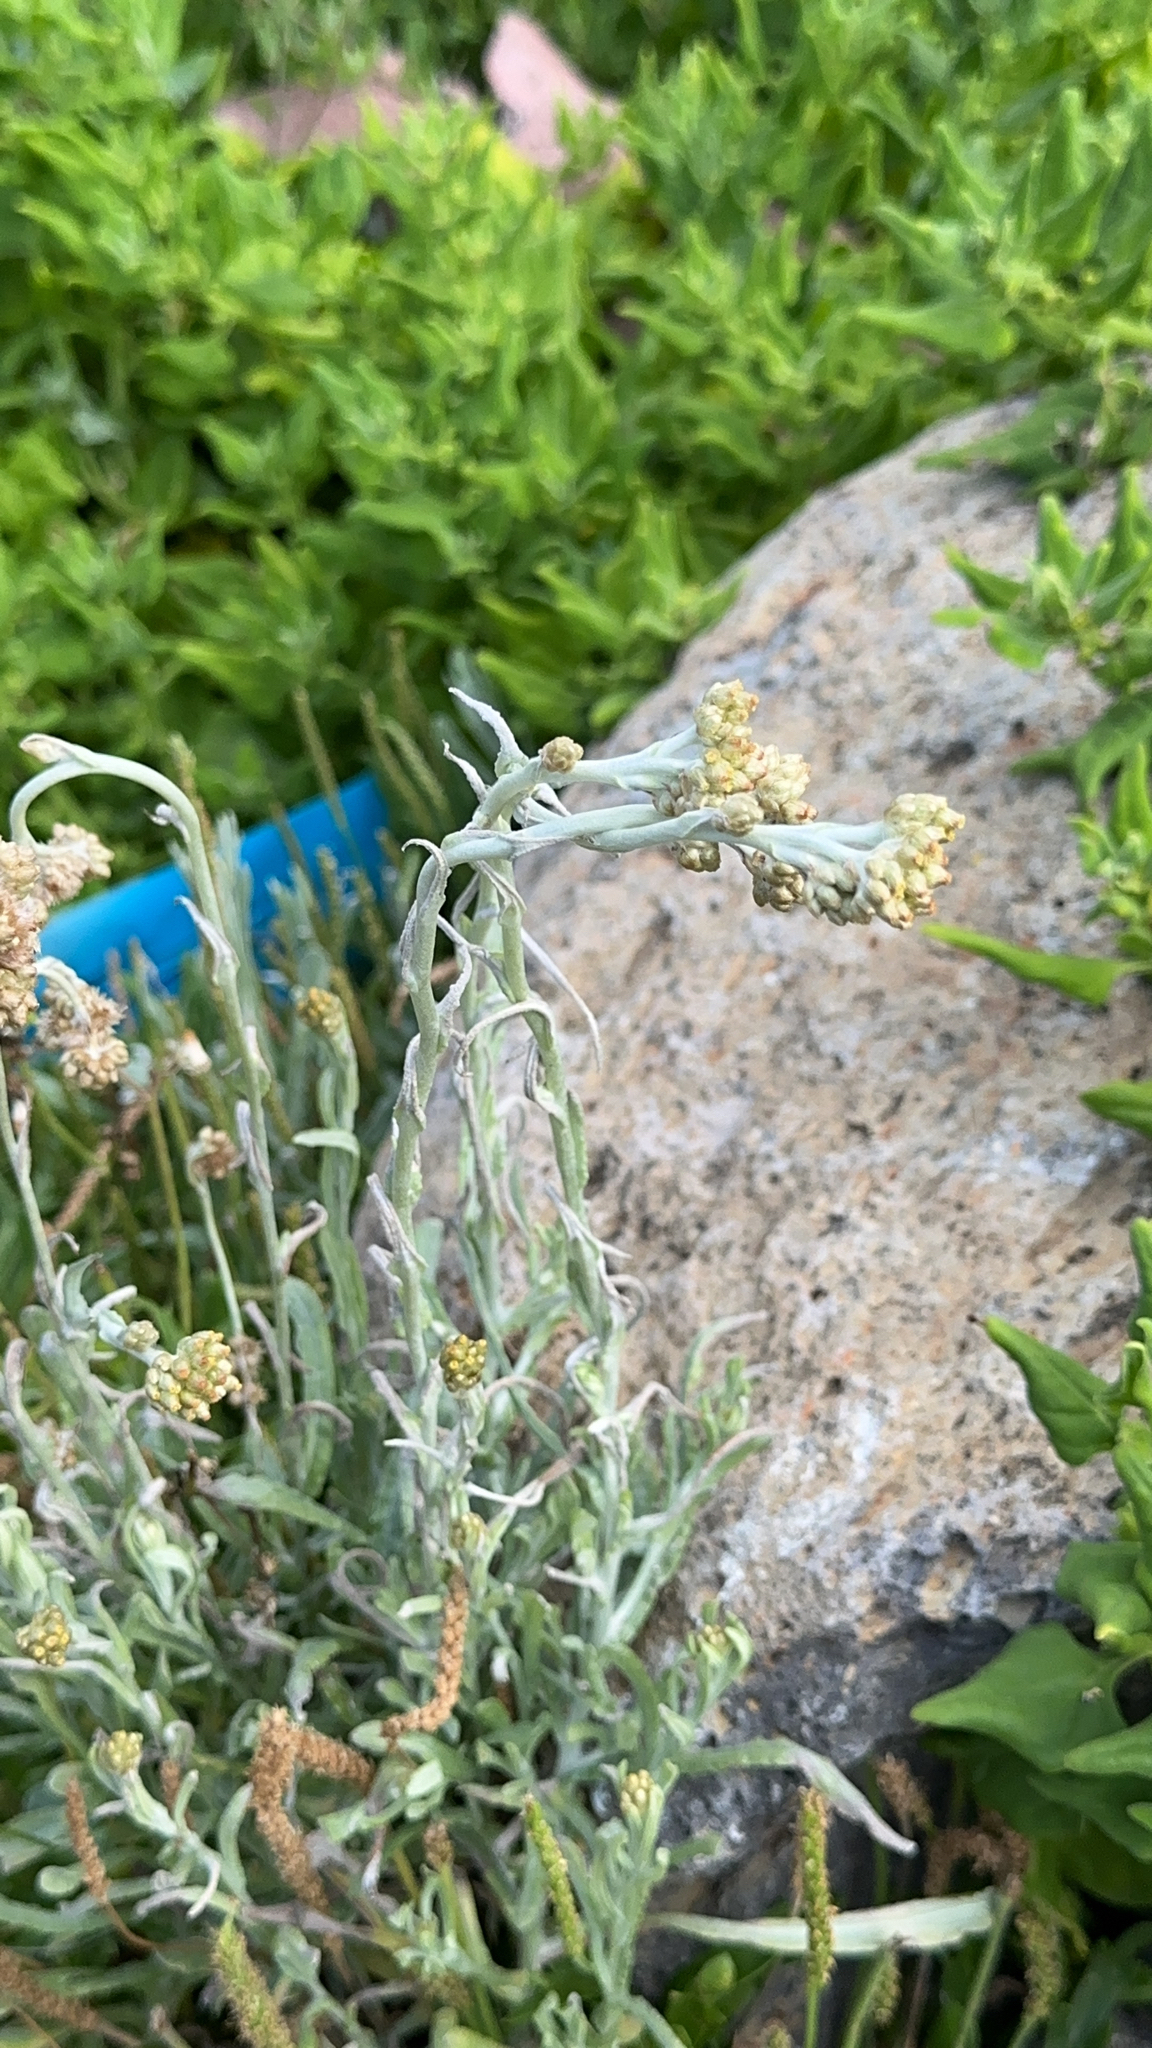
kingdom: Plantae
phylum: Tracheophyta
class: Magnoliopsida
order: Asterales
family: Asteraceae
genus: Helichrysum
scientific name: Helichrysum luteoalbum
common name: Daisy
